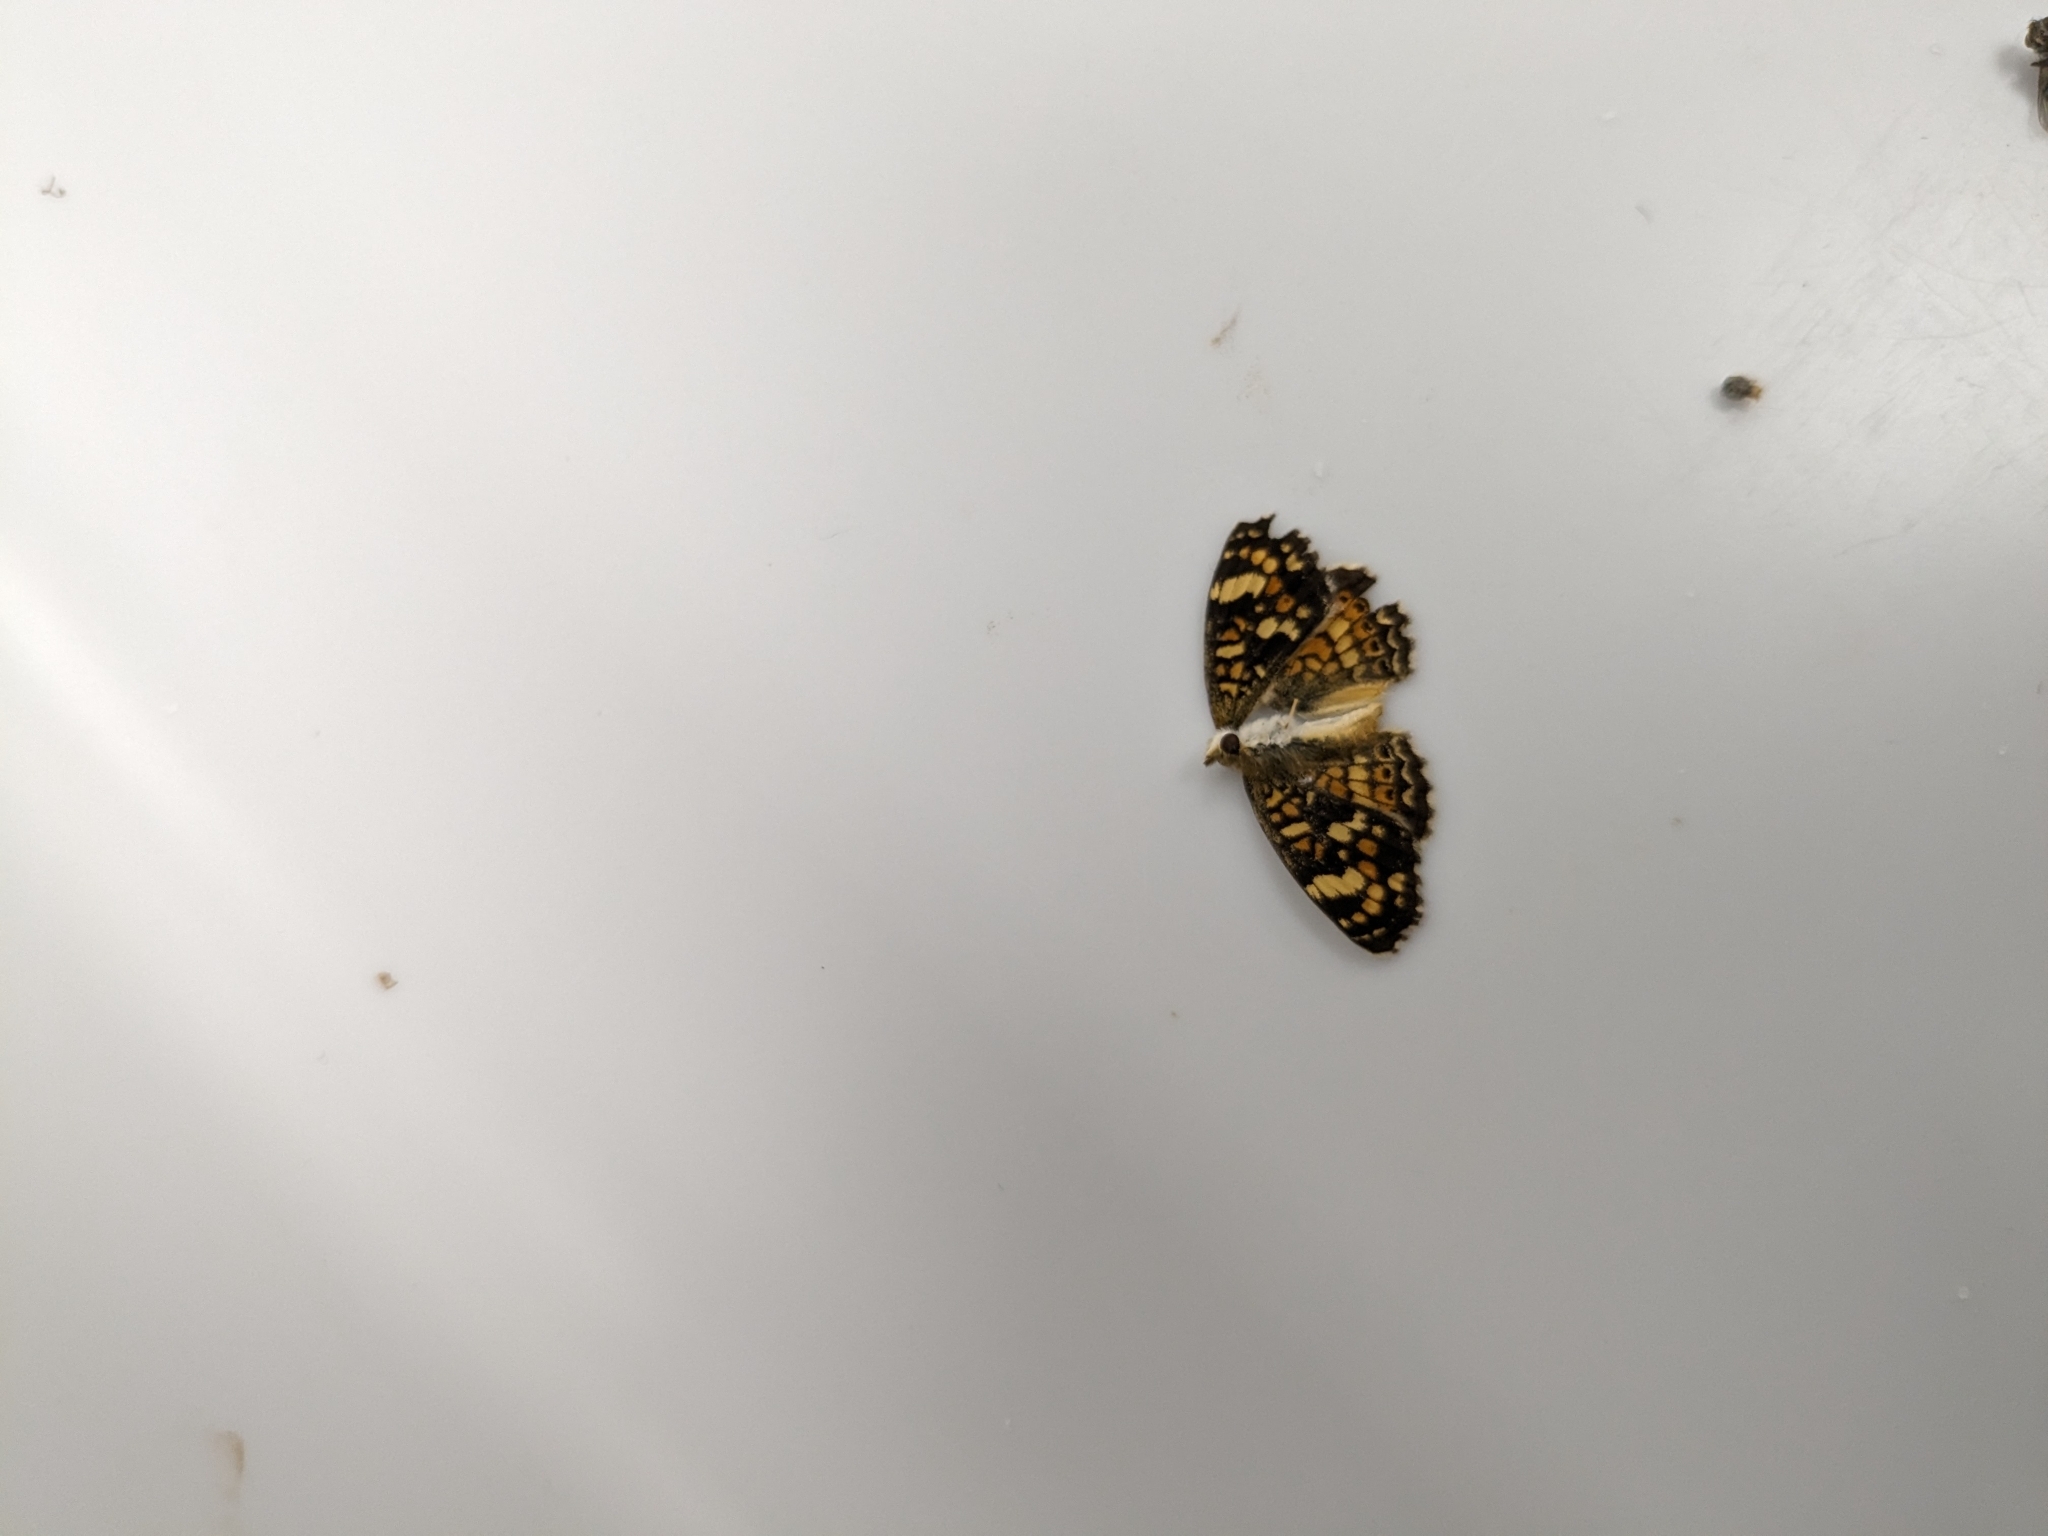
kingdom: Animalia
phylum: Arthropoda
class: Insecta
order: Lepidoptera
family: Nymphalidae
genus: Phyciodes
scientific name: Phyciodes picta
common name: Painted crescent
